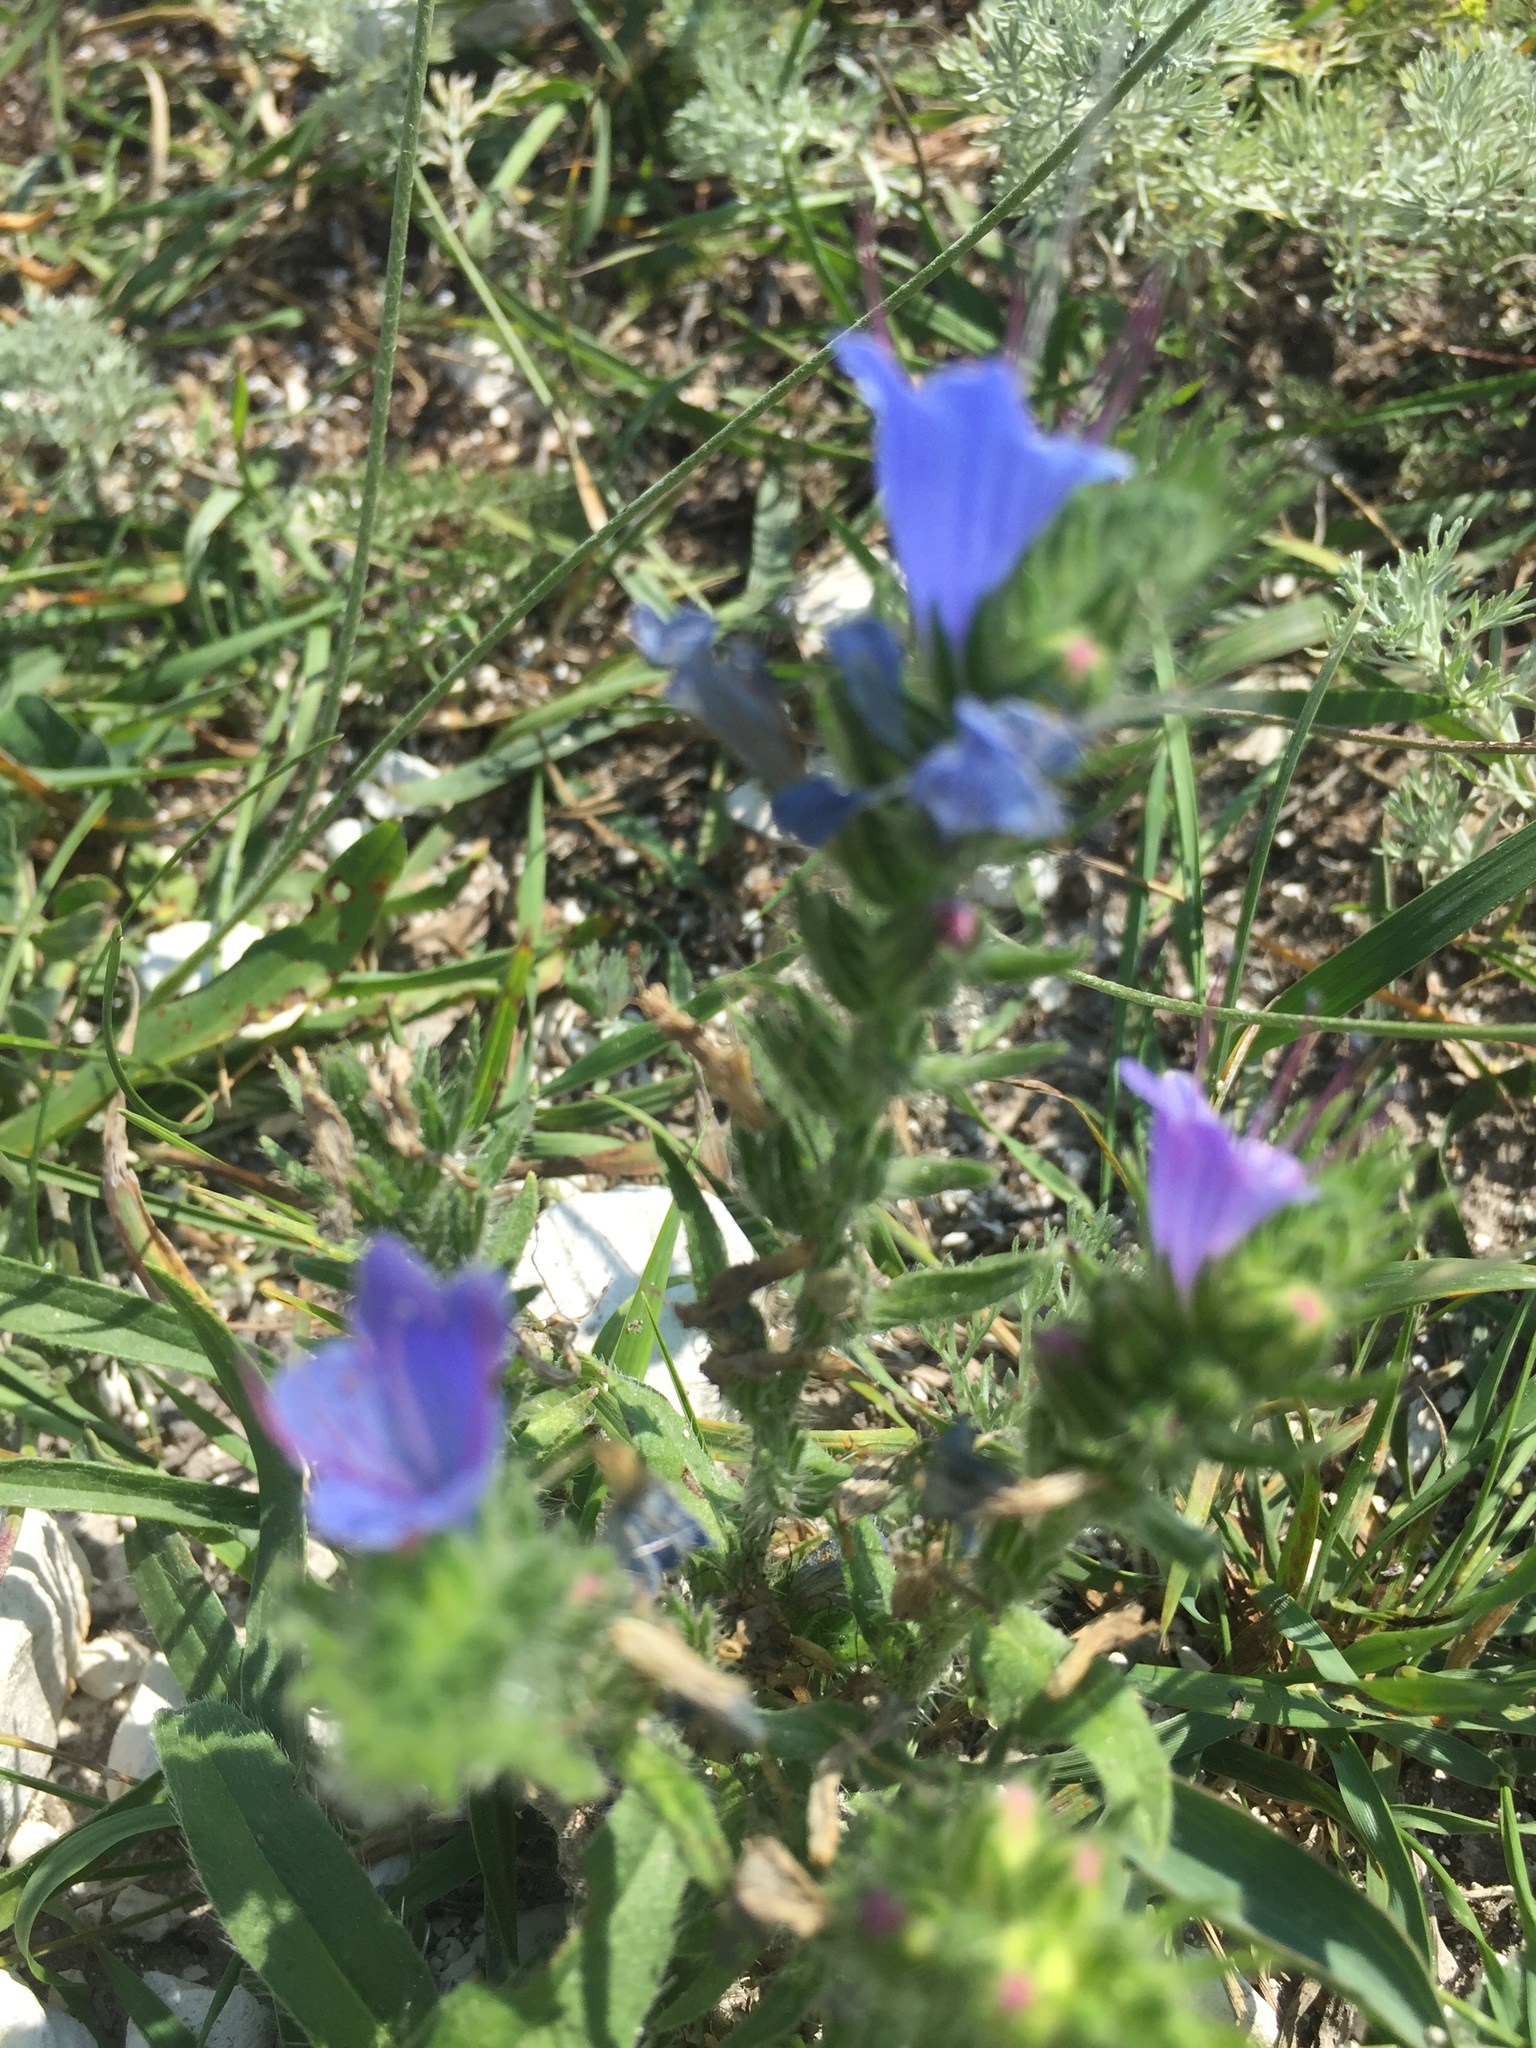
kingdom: Plantae
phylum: Tracheophyta
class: Magnoliopsida
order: Boraginales
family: Boraginaceae
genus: Echium
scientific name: Echium vulgare
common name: Common viper's bugloss
